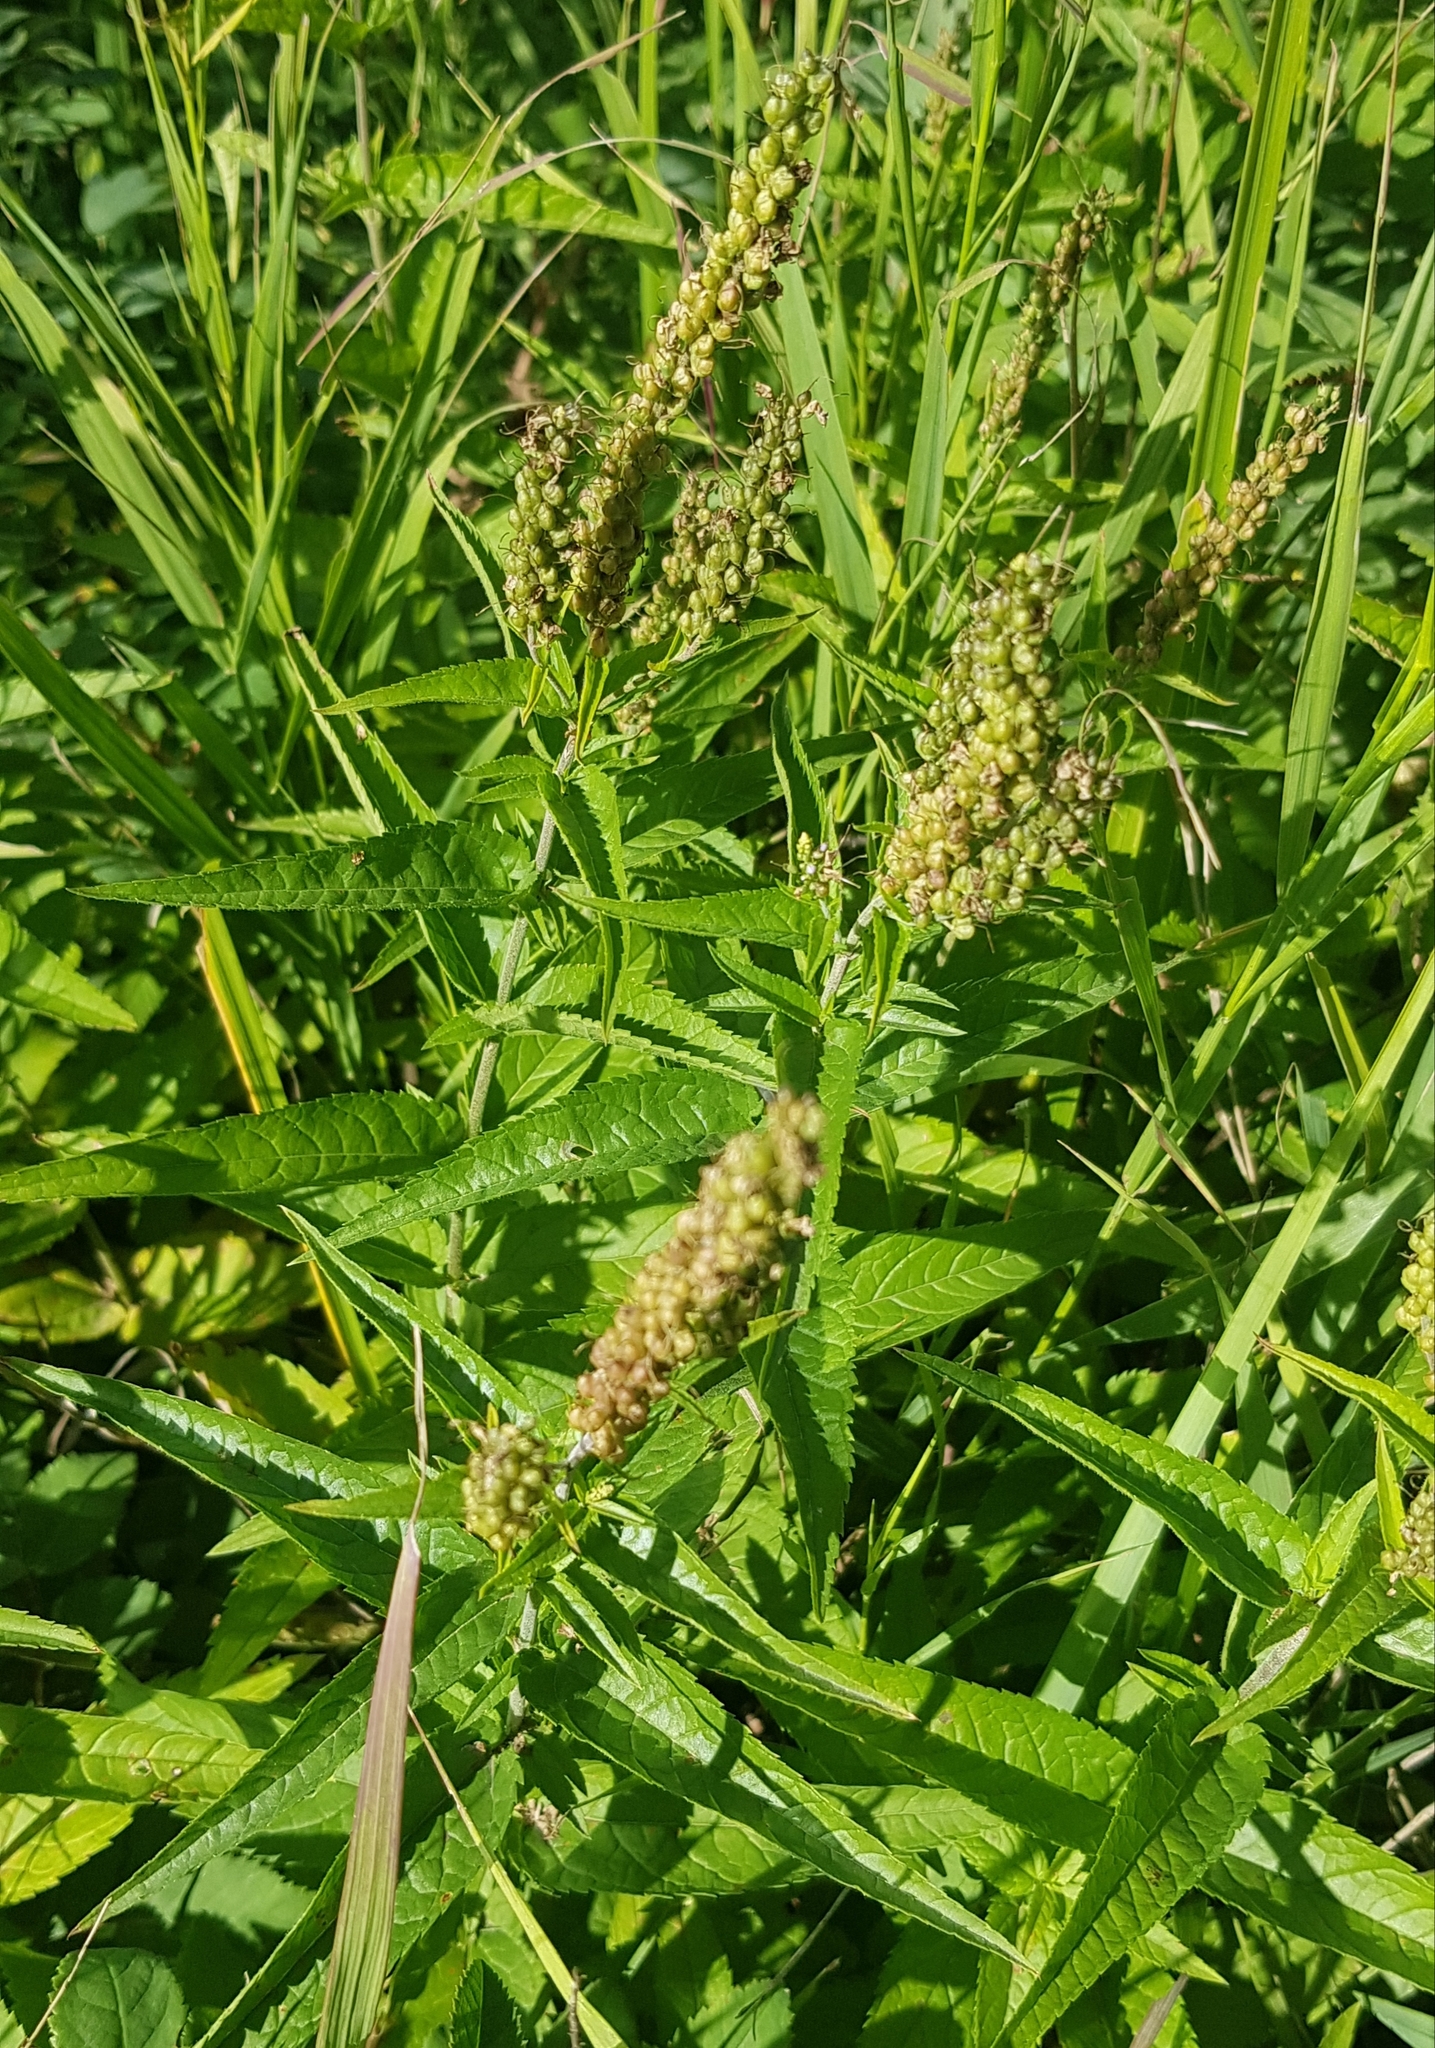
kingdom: Plantae
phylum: Tracheophyta
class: Magnoliopsida
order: Lamiales
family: Plantaginaceae
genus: Veronica
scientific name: Veronica longifolia
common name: Garden speedwell
